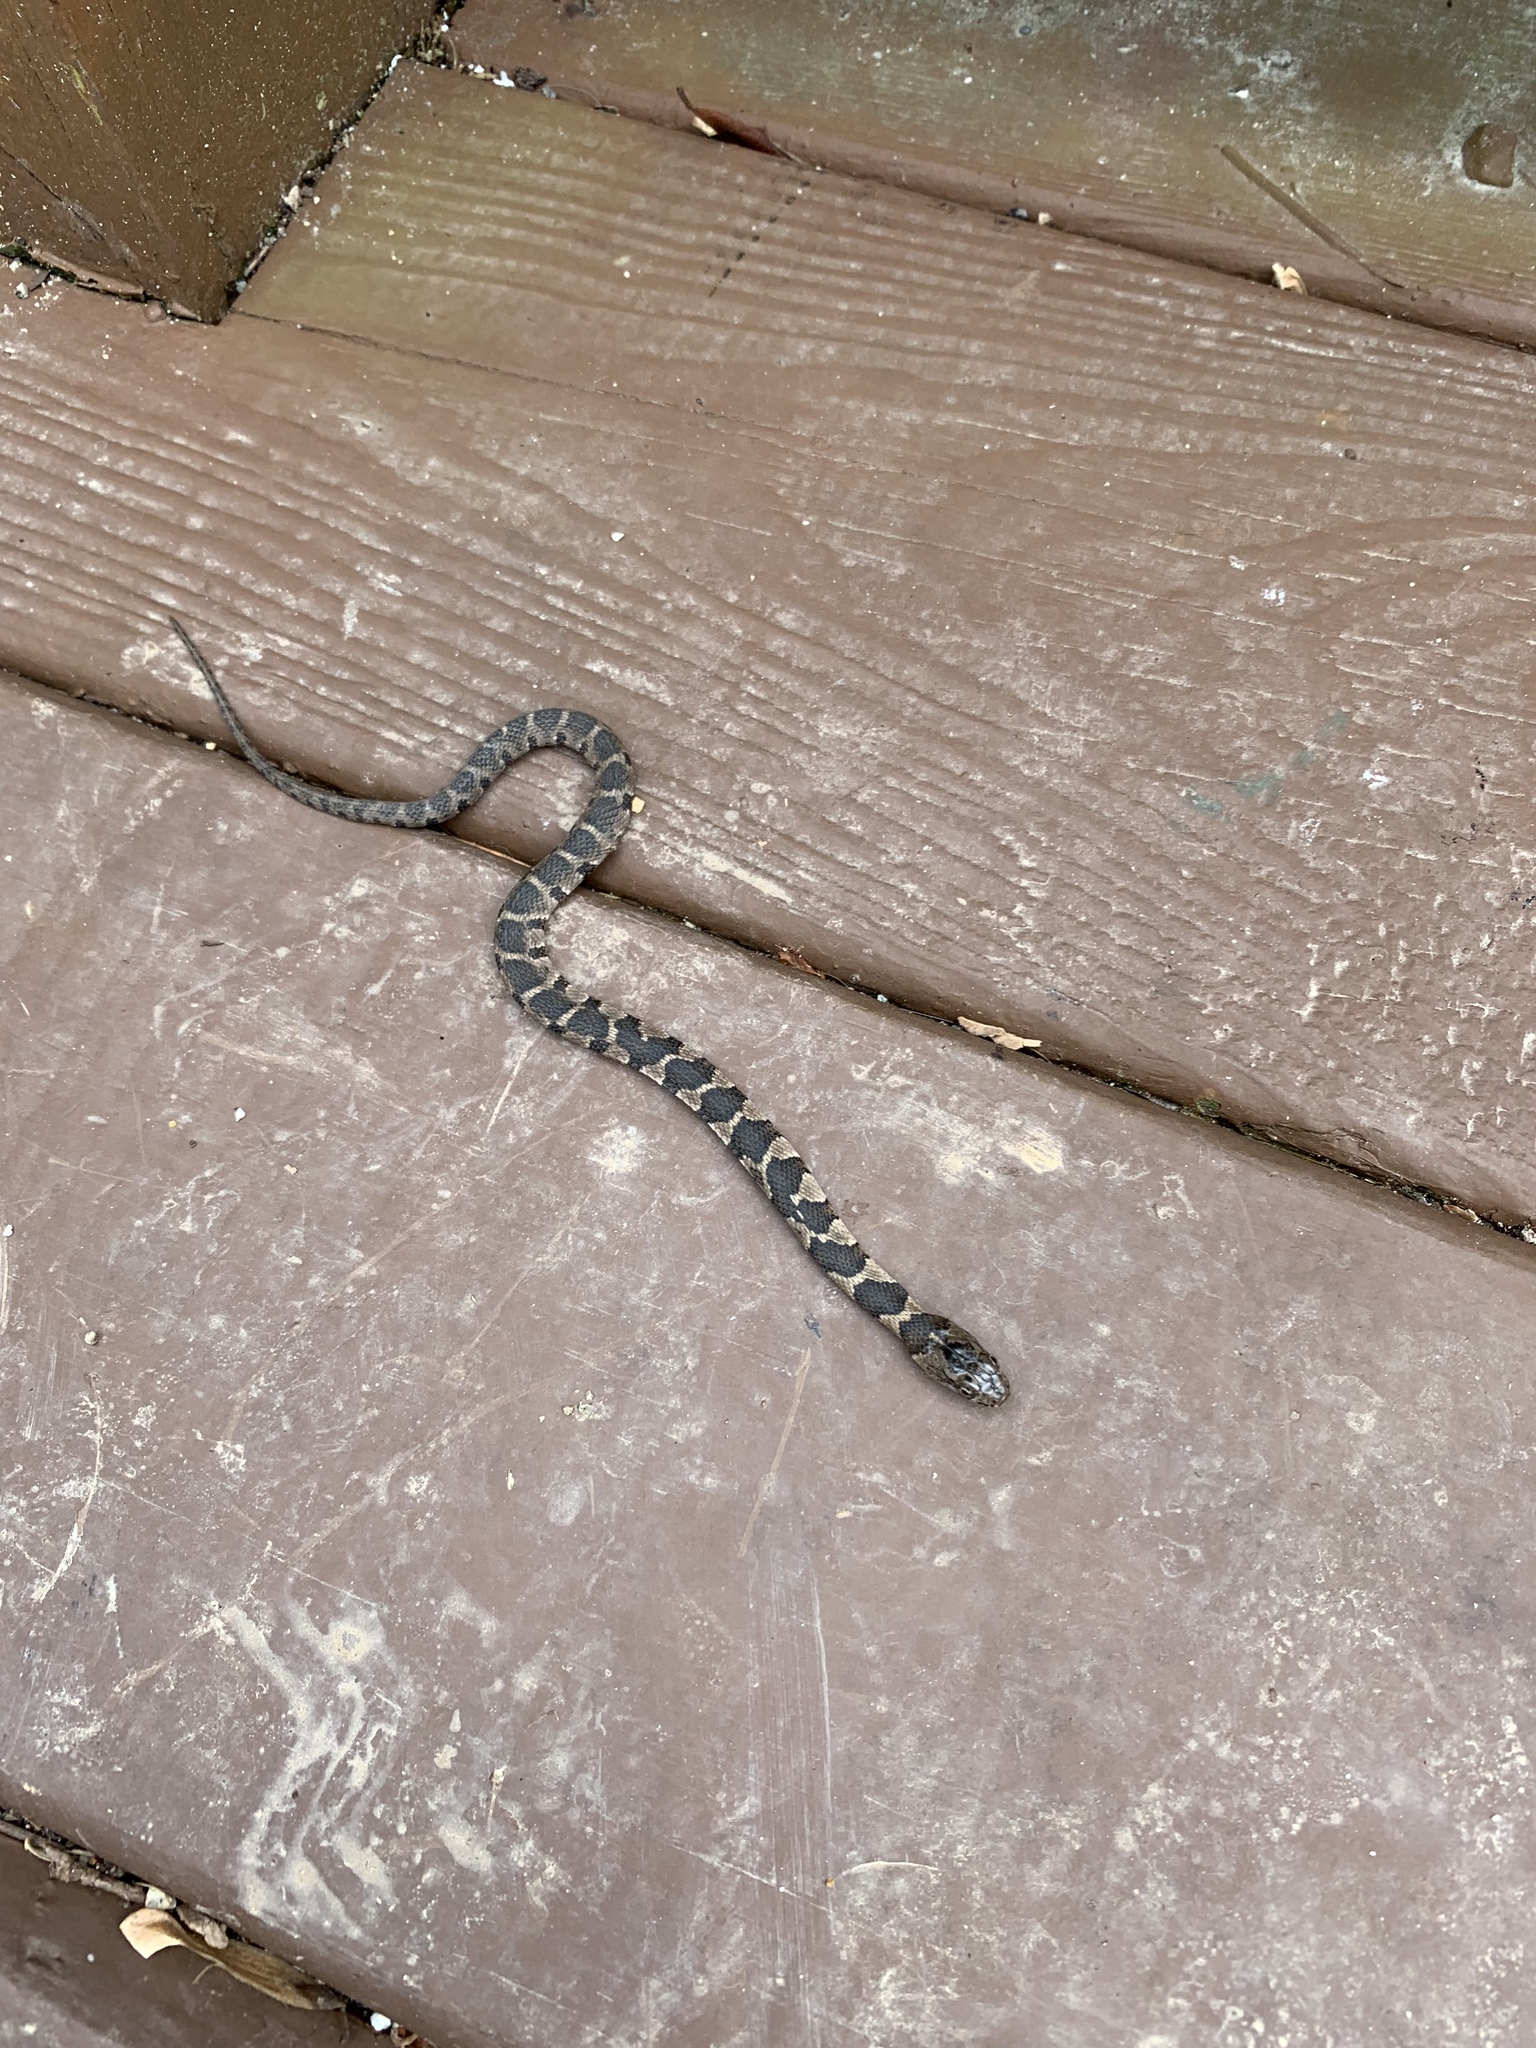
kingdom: Animalia
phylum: Chordata
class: Squamata
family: Colubridae
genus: Nerodia
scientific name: Nerodia sipedon
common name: Northern water snake
